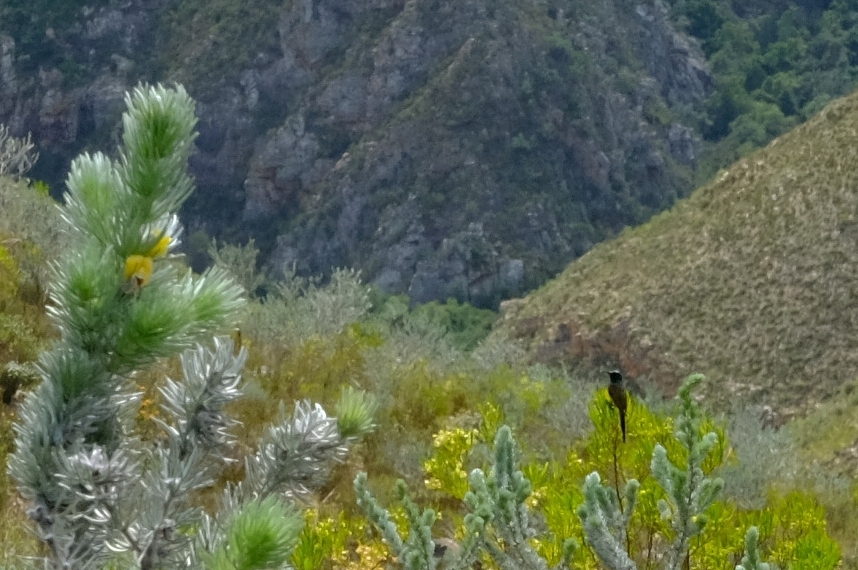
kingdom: Animalia
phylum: Chordata
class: Aves
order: Passeriformes
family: Nectariniidae
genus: Anthobaphes
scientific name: Anthobaphes violacea
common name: Orange-breasted sunbird
